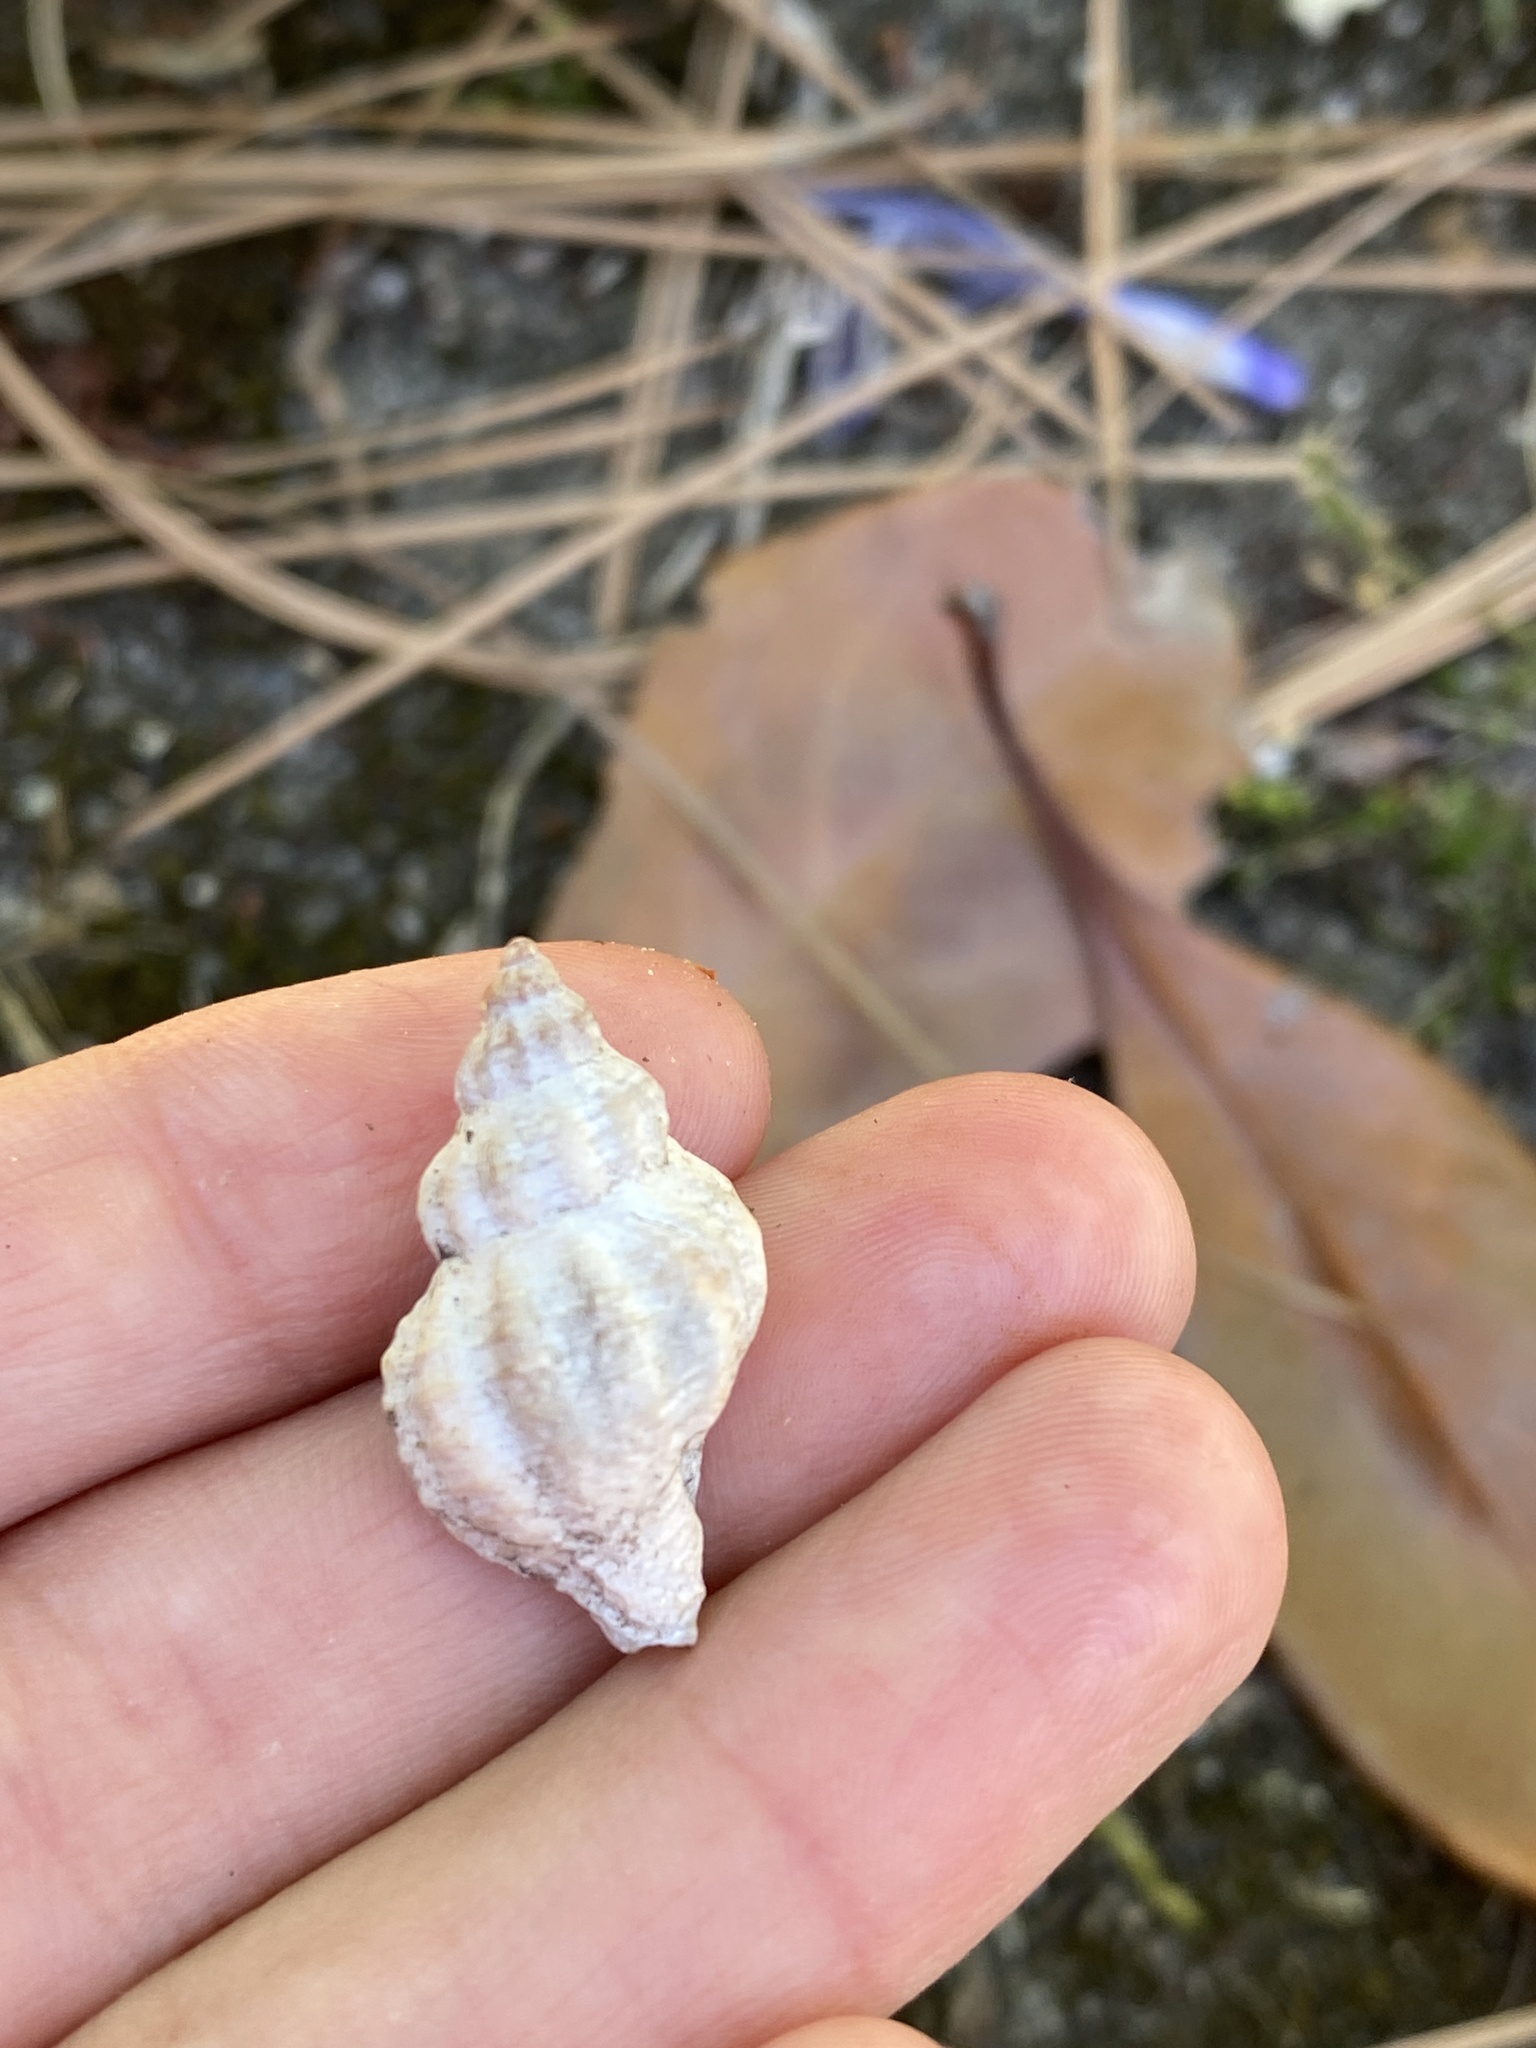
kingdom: Animalia
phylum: Mollusca
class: Gastropoda
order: Neogastropoda
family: Muricidae
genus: Urosalpinx
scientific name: Urosalpinx cinerea
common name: American sting winkle
